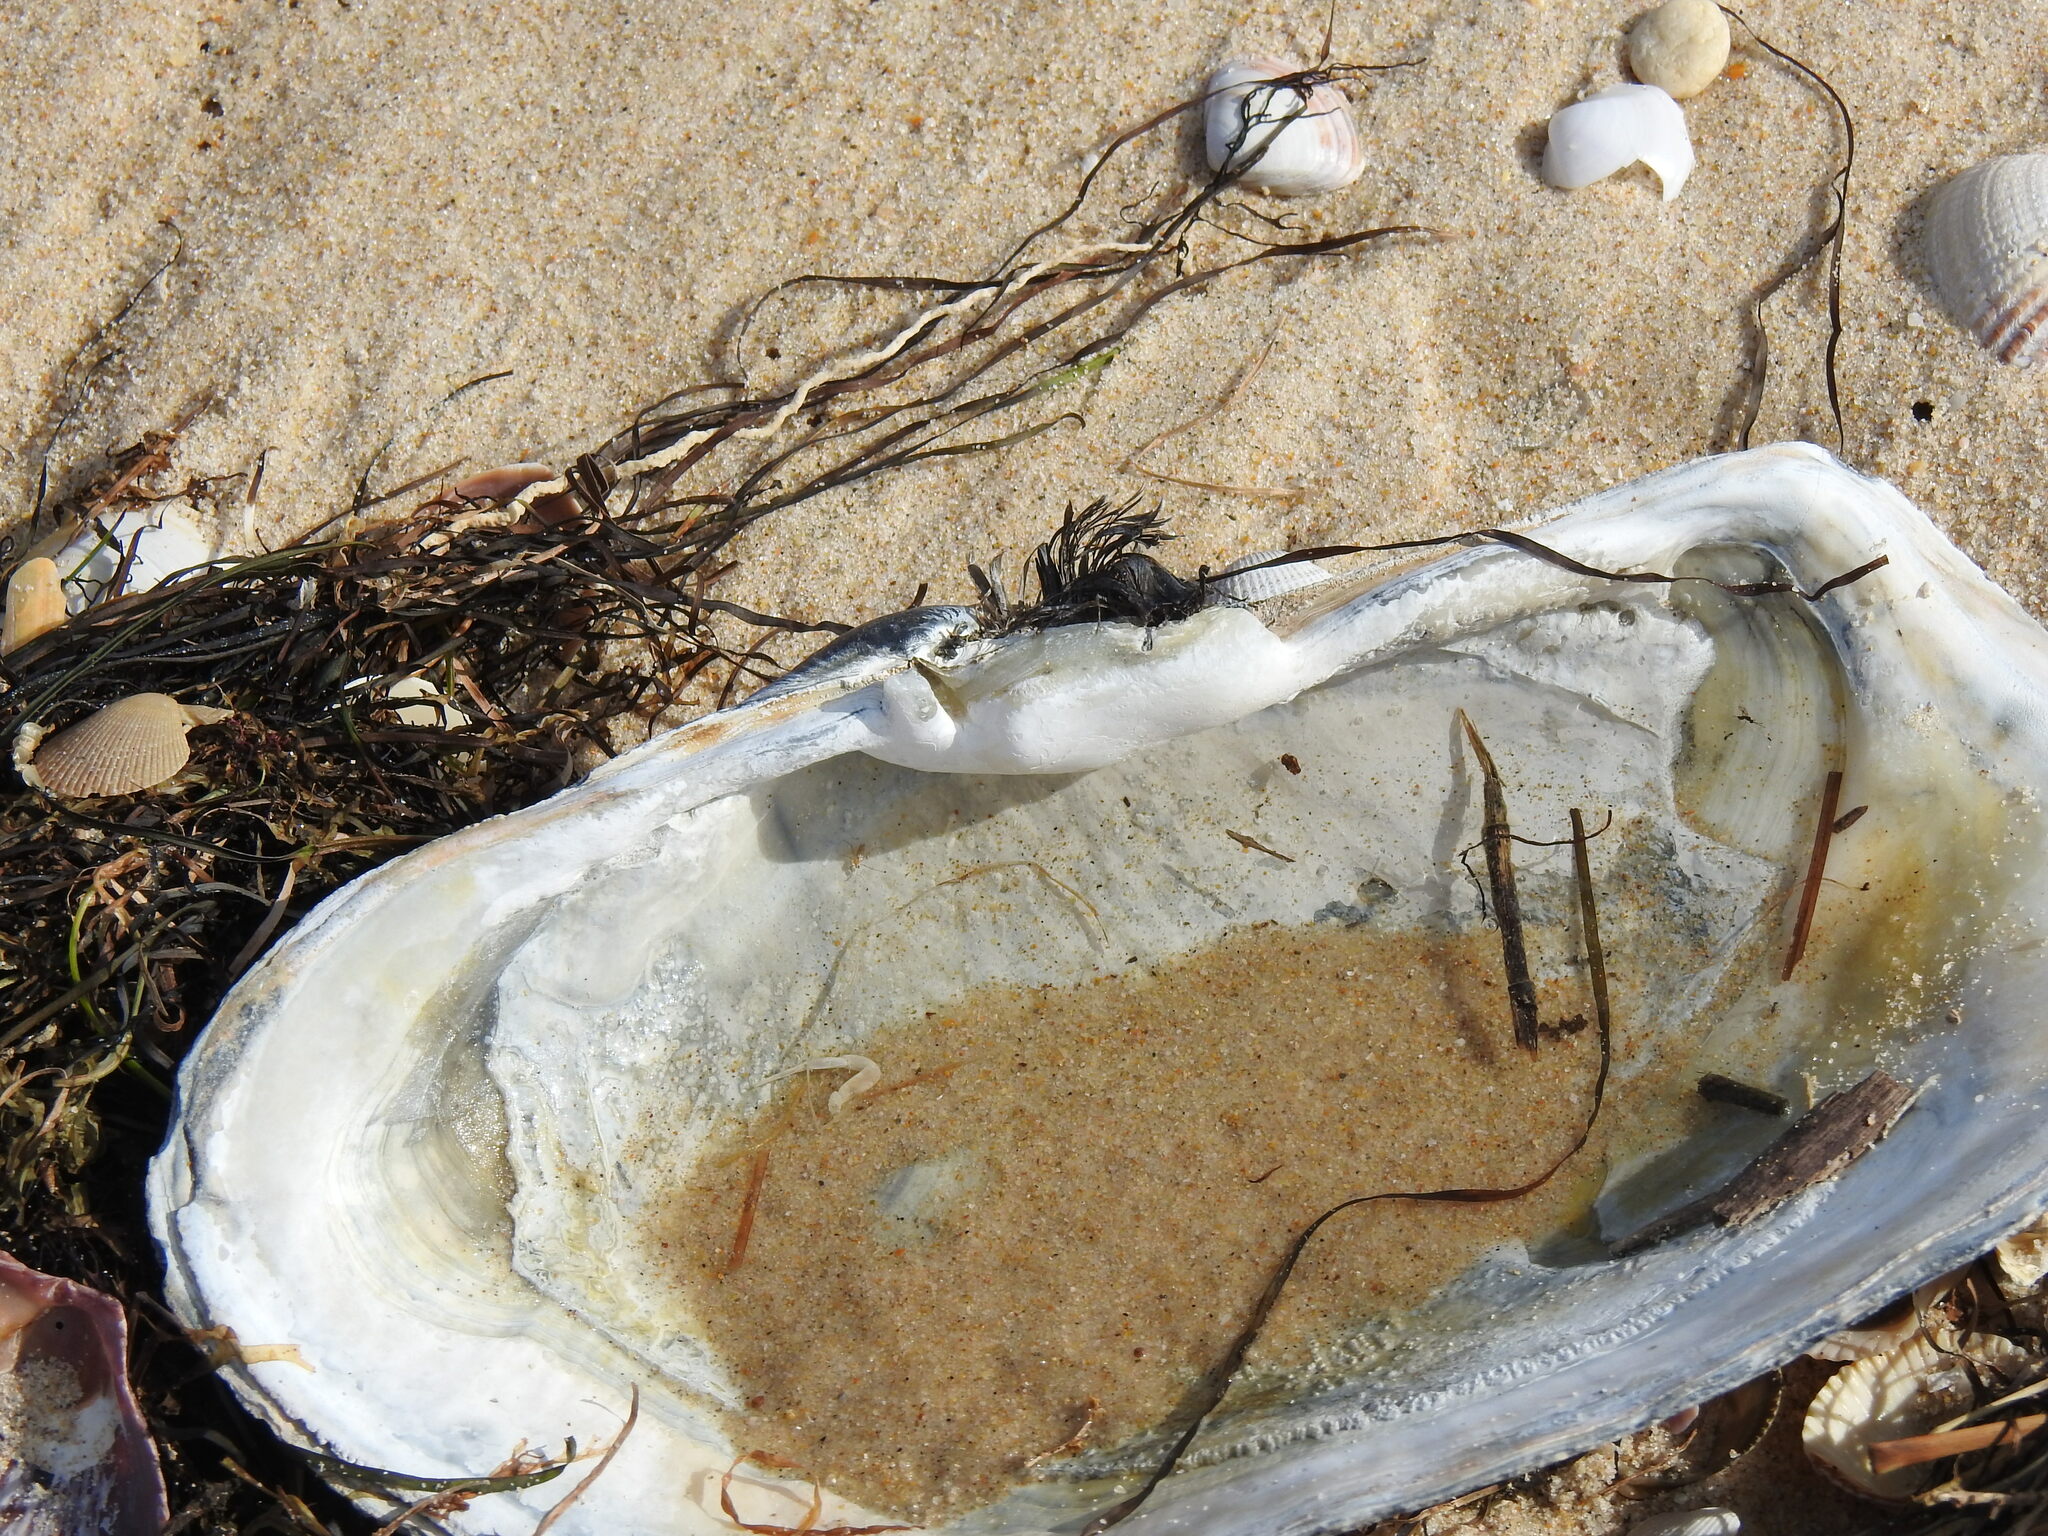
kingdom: Animalia
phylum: Mollusca
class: Bivalvia
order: Adapedonta
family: Hiatellidae
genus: Panopea
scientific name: Panopea glycimeris
